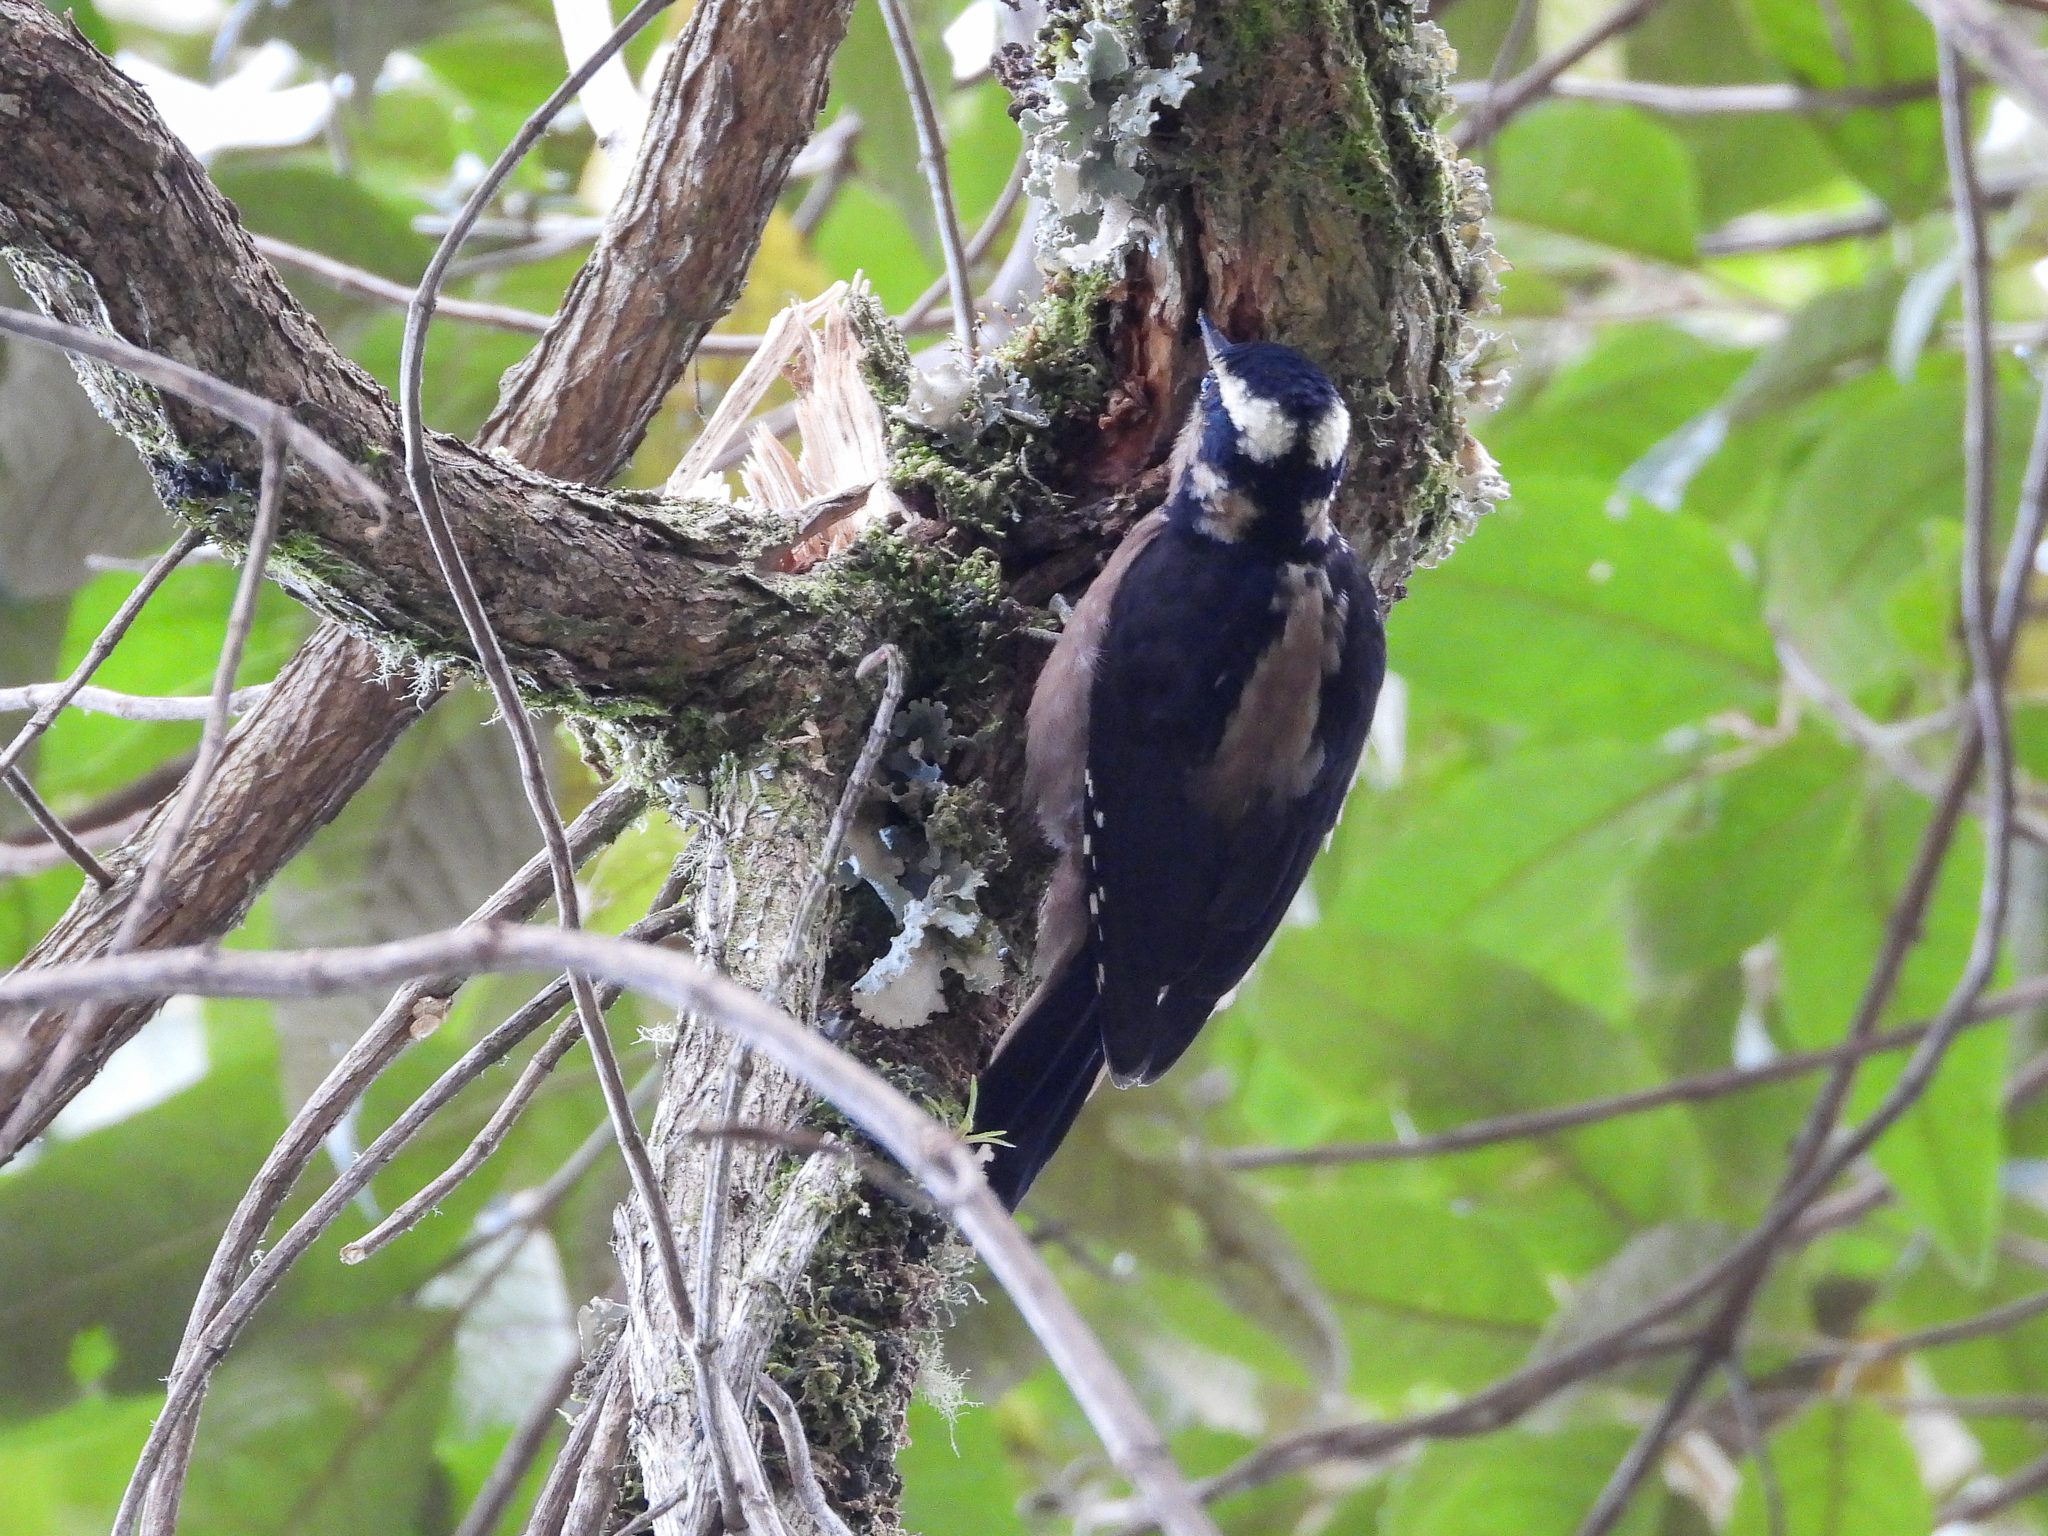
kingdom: Animalia
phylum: Chordata
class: Aves
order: Piciformes
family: Picidae
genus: Leuconotopicus
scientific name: Leuconotopicus villosus
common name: Hairy woodpecker
